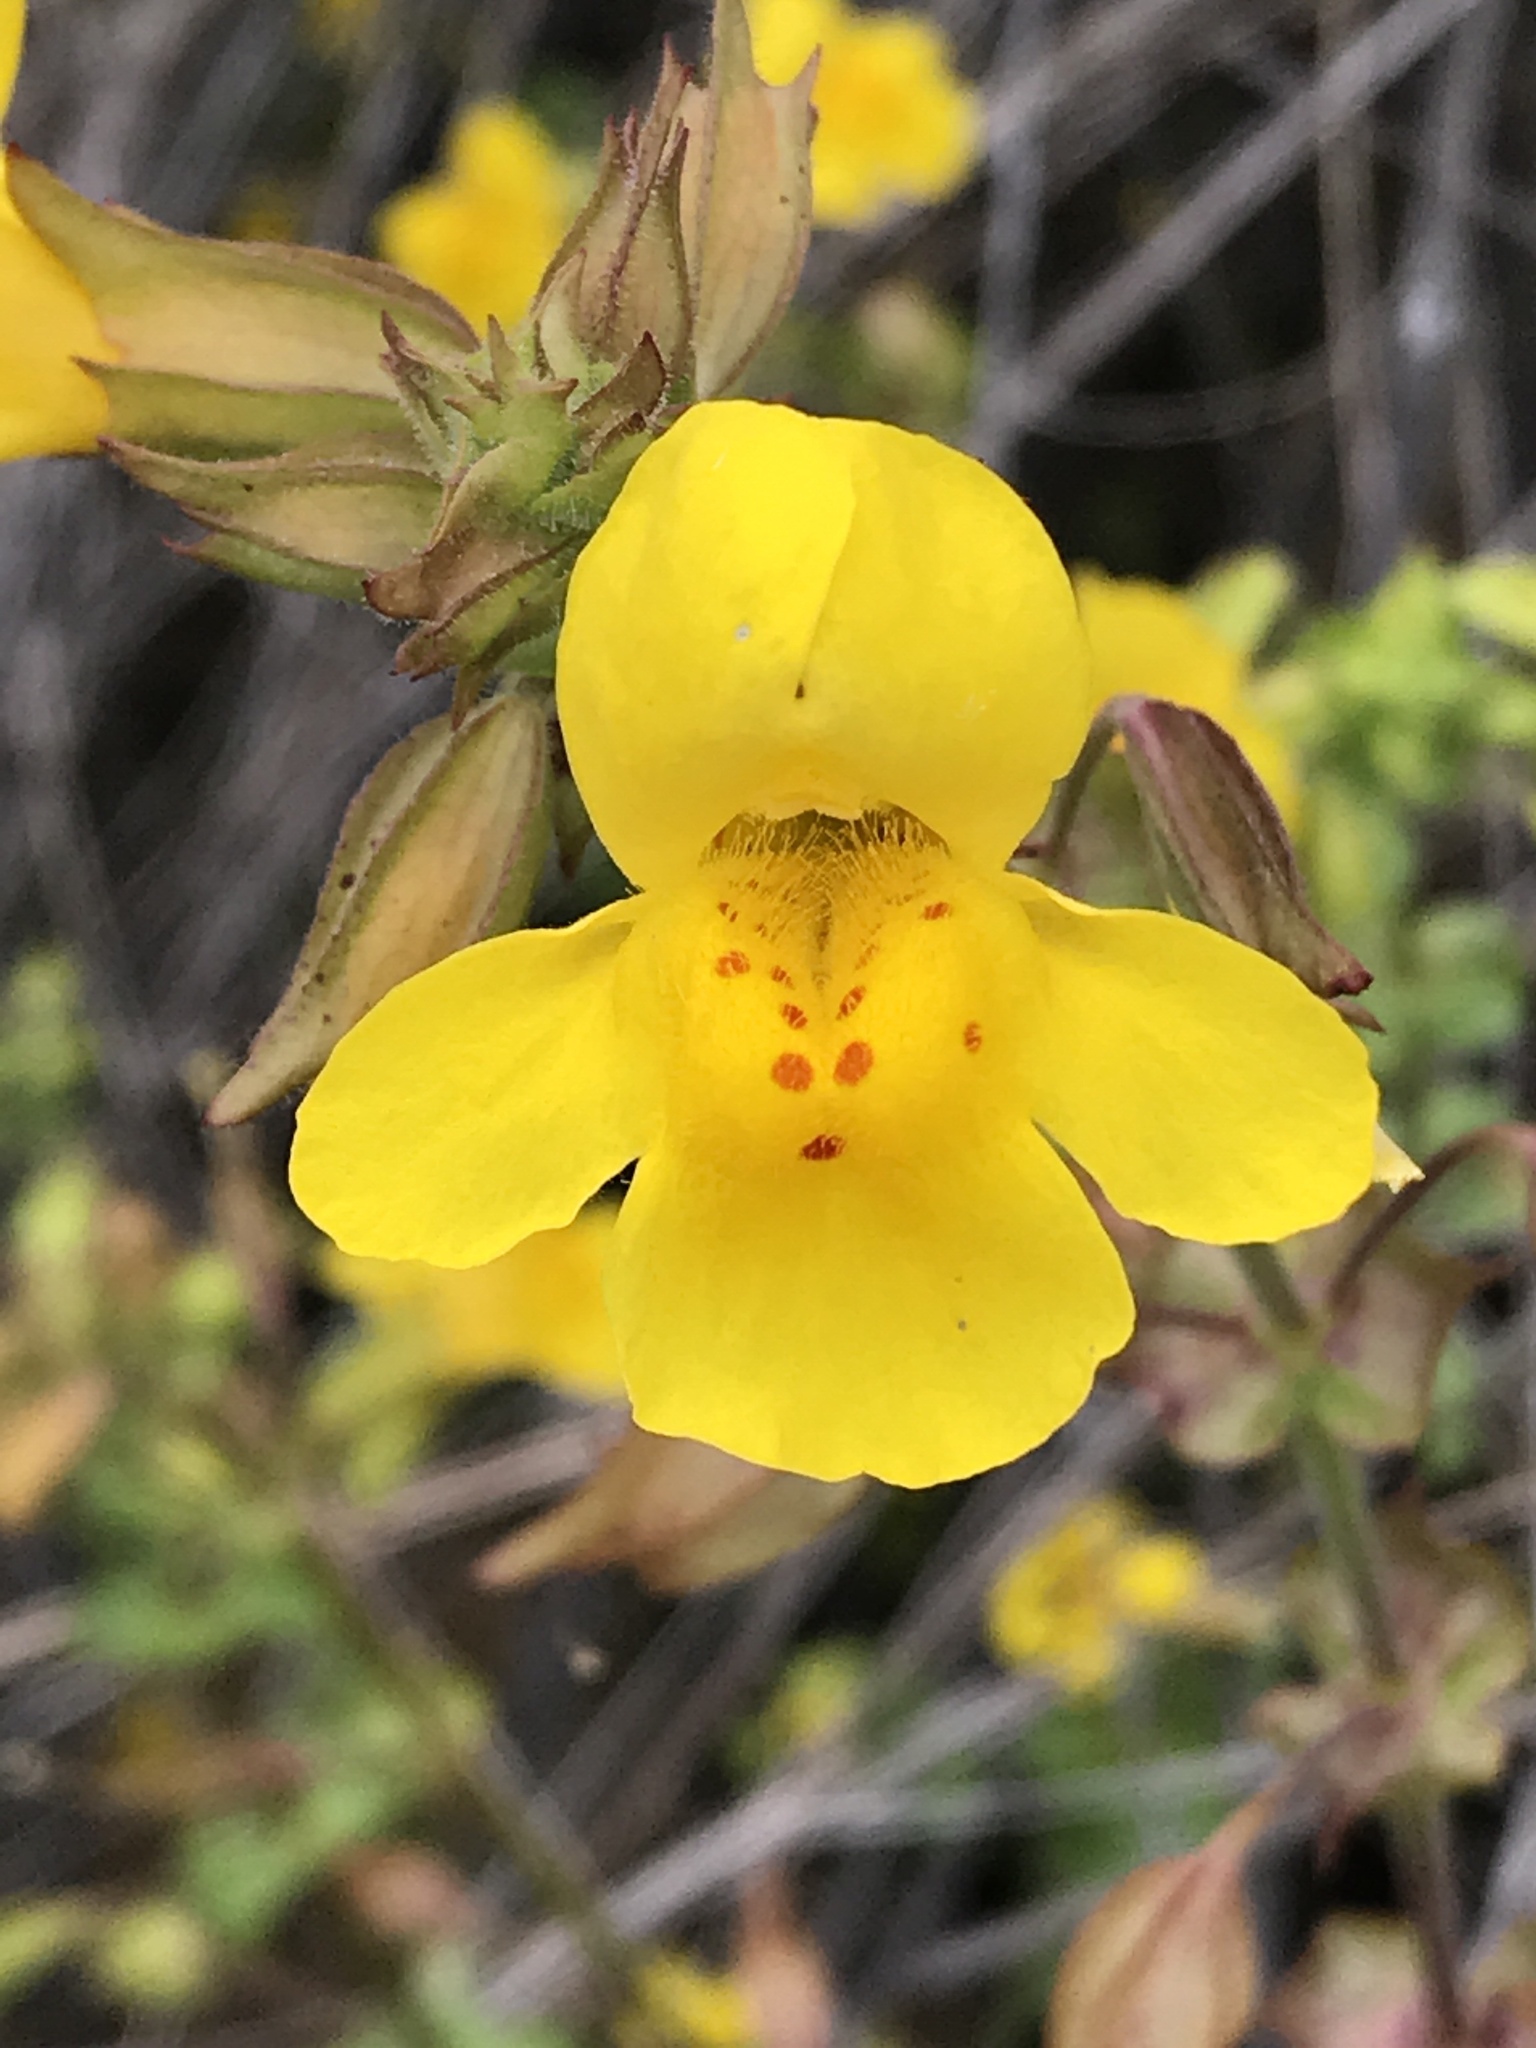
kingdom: Plantae
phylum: Tracheophyta
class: Magnoliopsida
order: Lamiales
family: Phrymaceae
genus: Erythranthe
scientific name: Erythranthe guttata
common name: Monkeyflower
